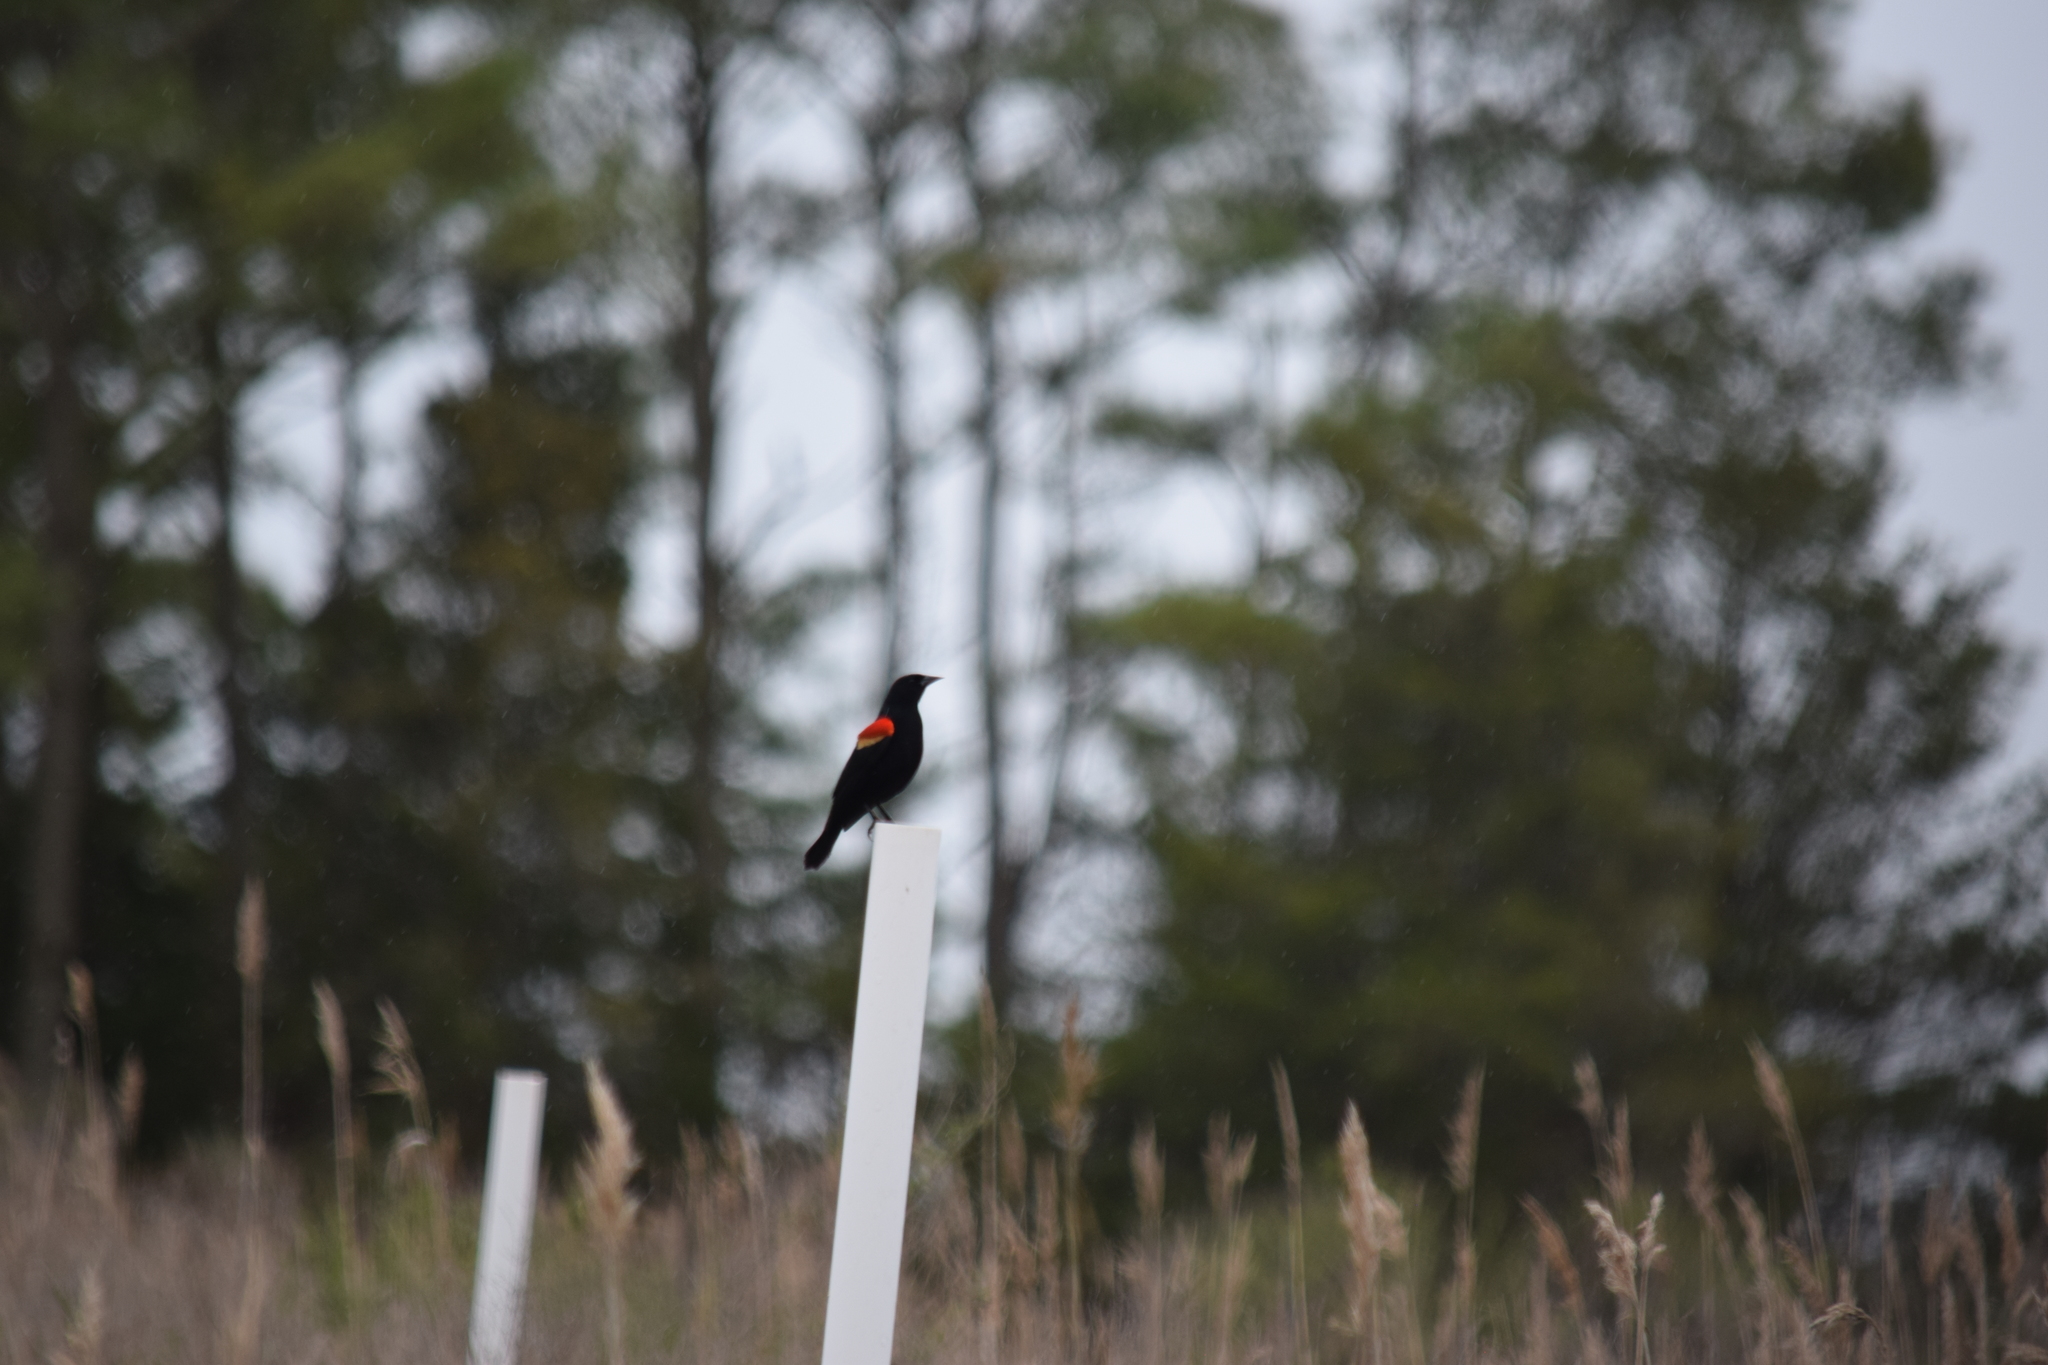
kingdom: Animalia
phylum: Chordata
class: Aves
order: Passeriformes
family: Icteridae
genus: Agelaius
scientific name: Agelaius phoeniceus
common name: Red-winged blackbird
